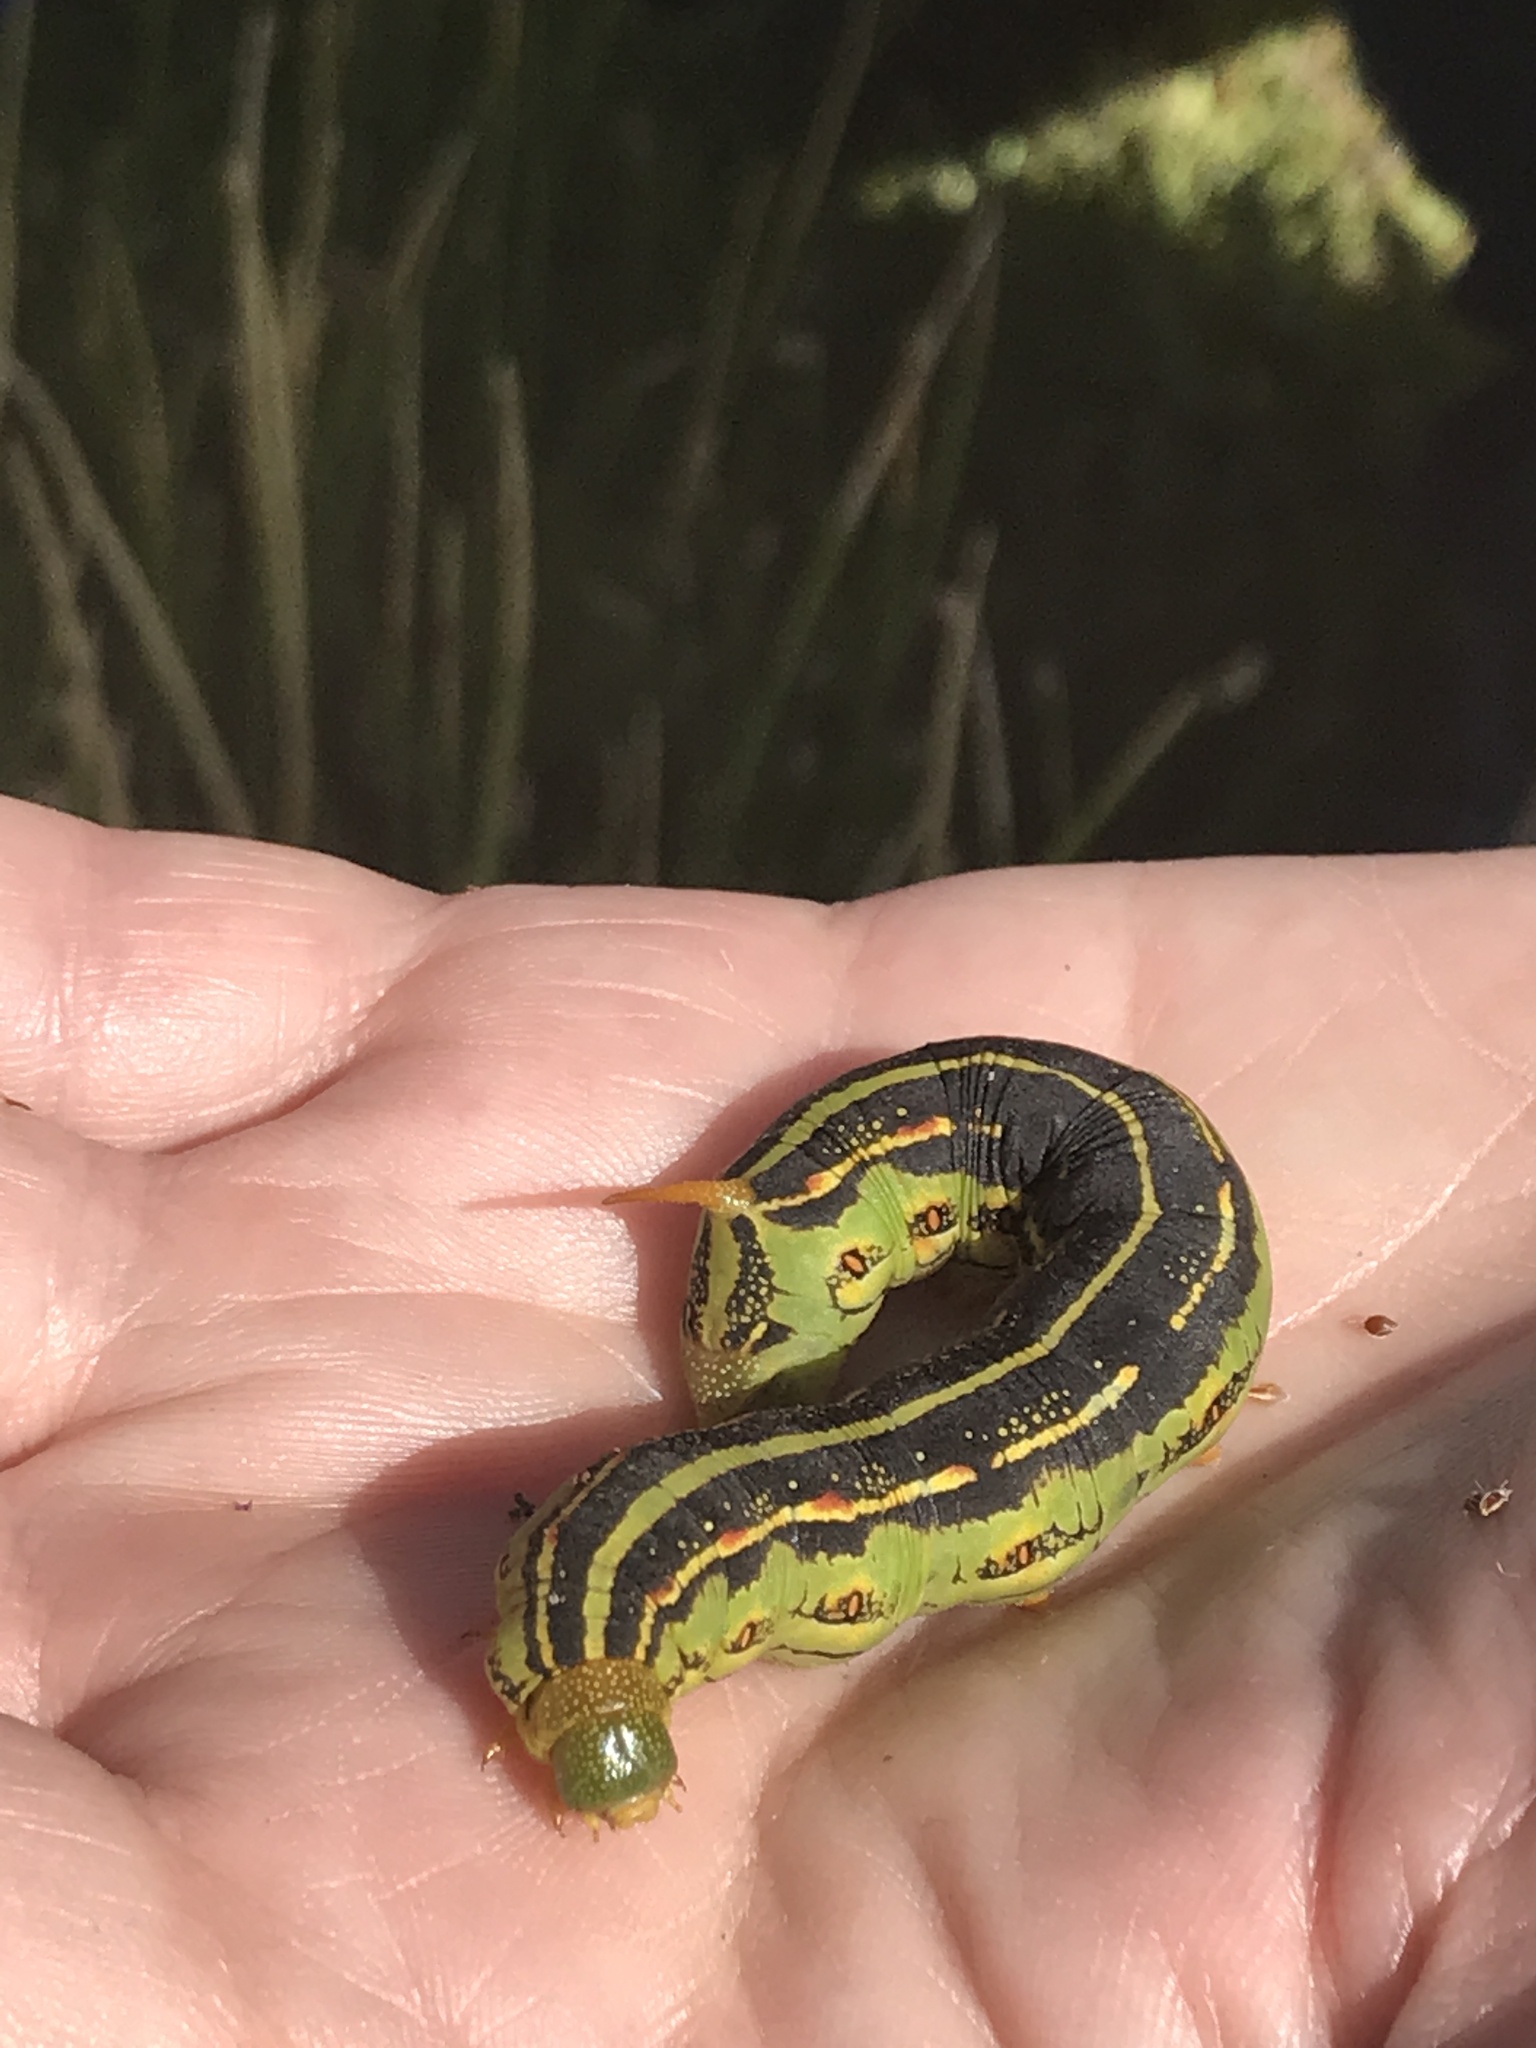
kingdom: Animalia
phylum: Arthropoda
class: Insecta
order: Lepidoptera
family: Sphingidae
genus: Hyles
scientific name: Hyles lineata
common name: White-lined sphinx
